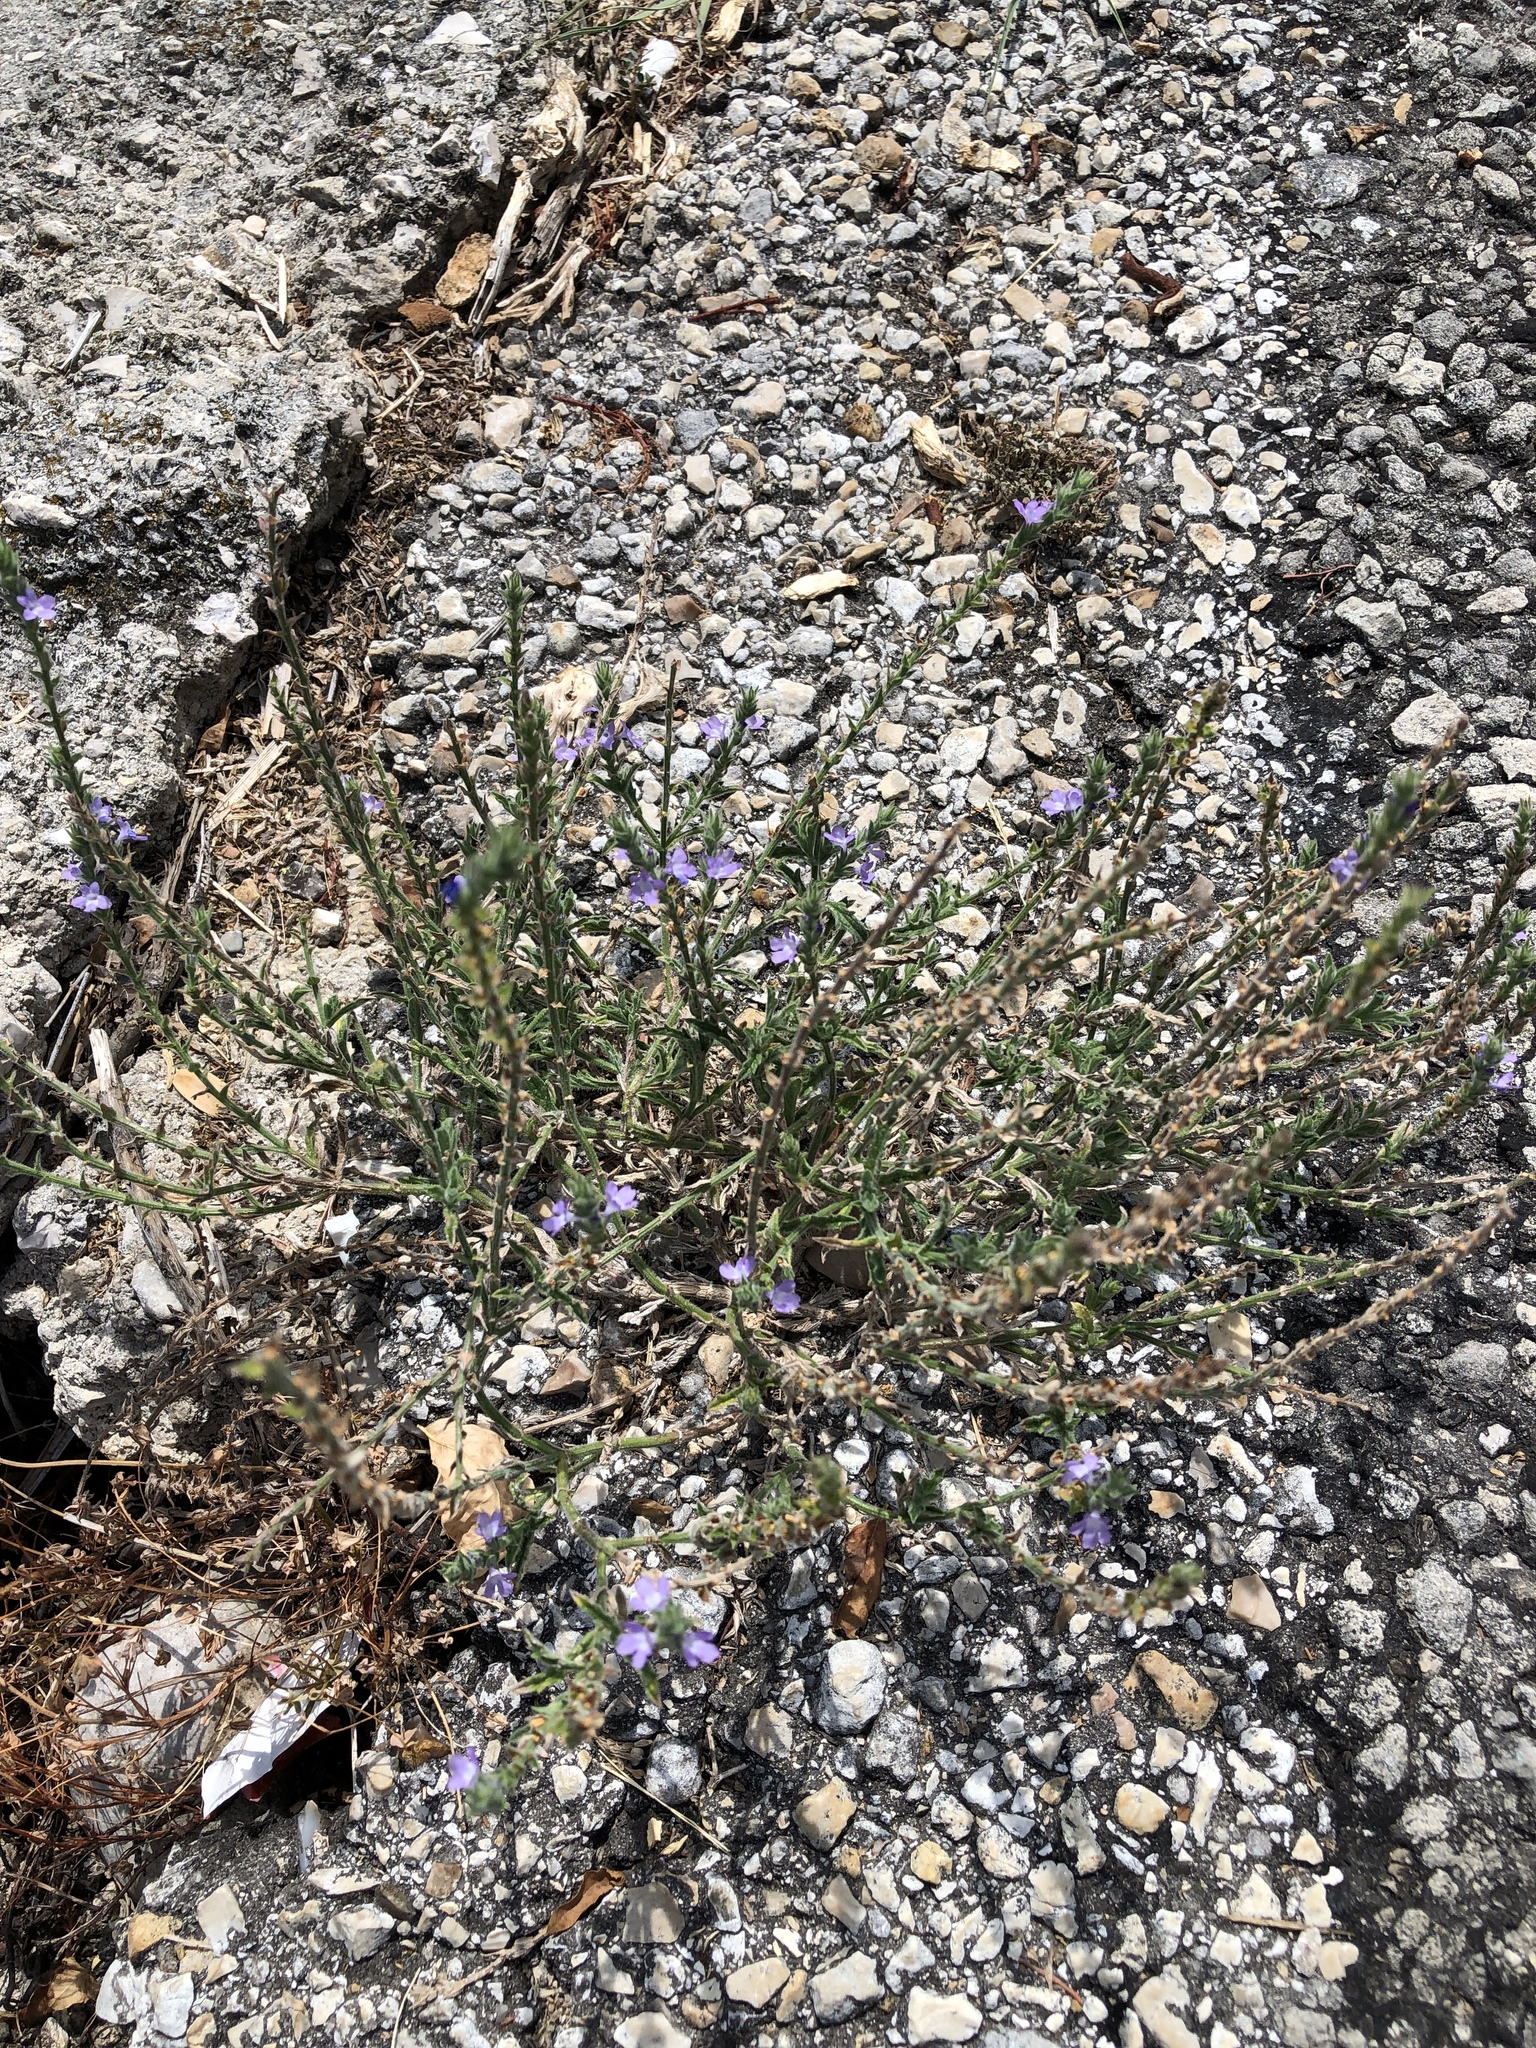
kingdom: Plantae
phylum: Tracheophyta
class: Magnoliopsida
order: Lamiales
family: Verbenaceae
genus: Verbena
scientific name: Verbena canescens
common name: Gray vervain
